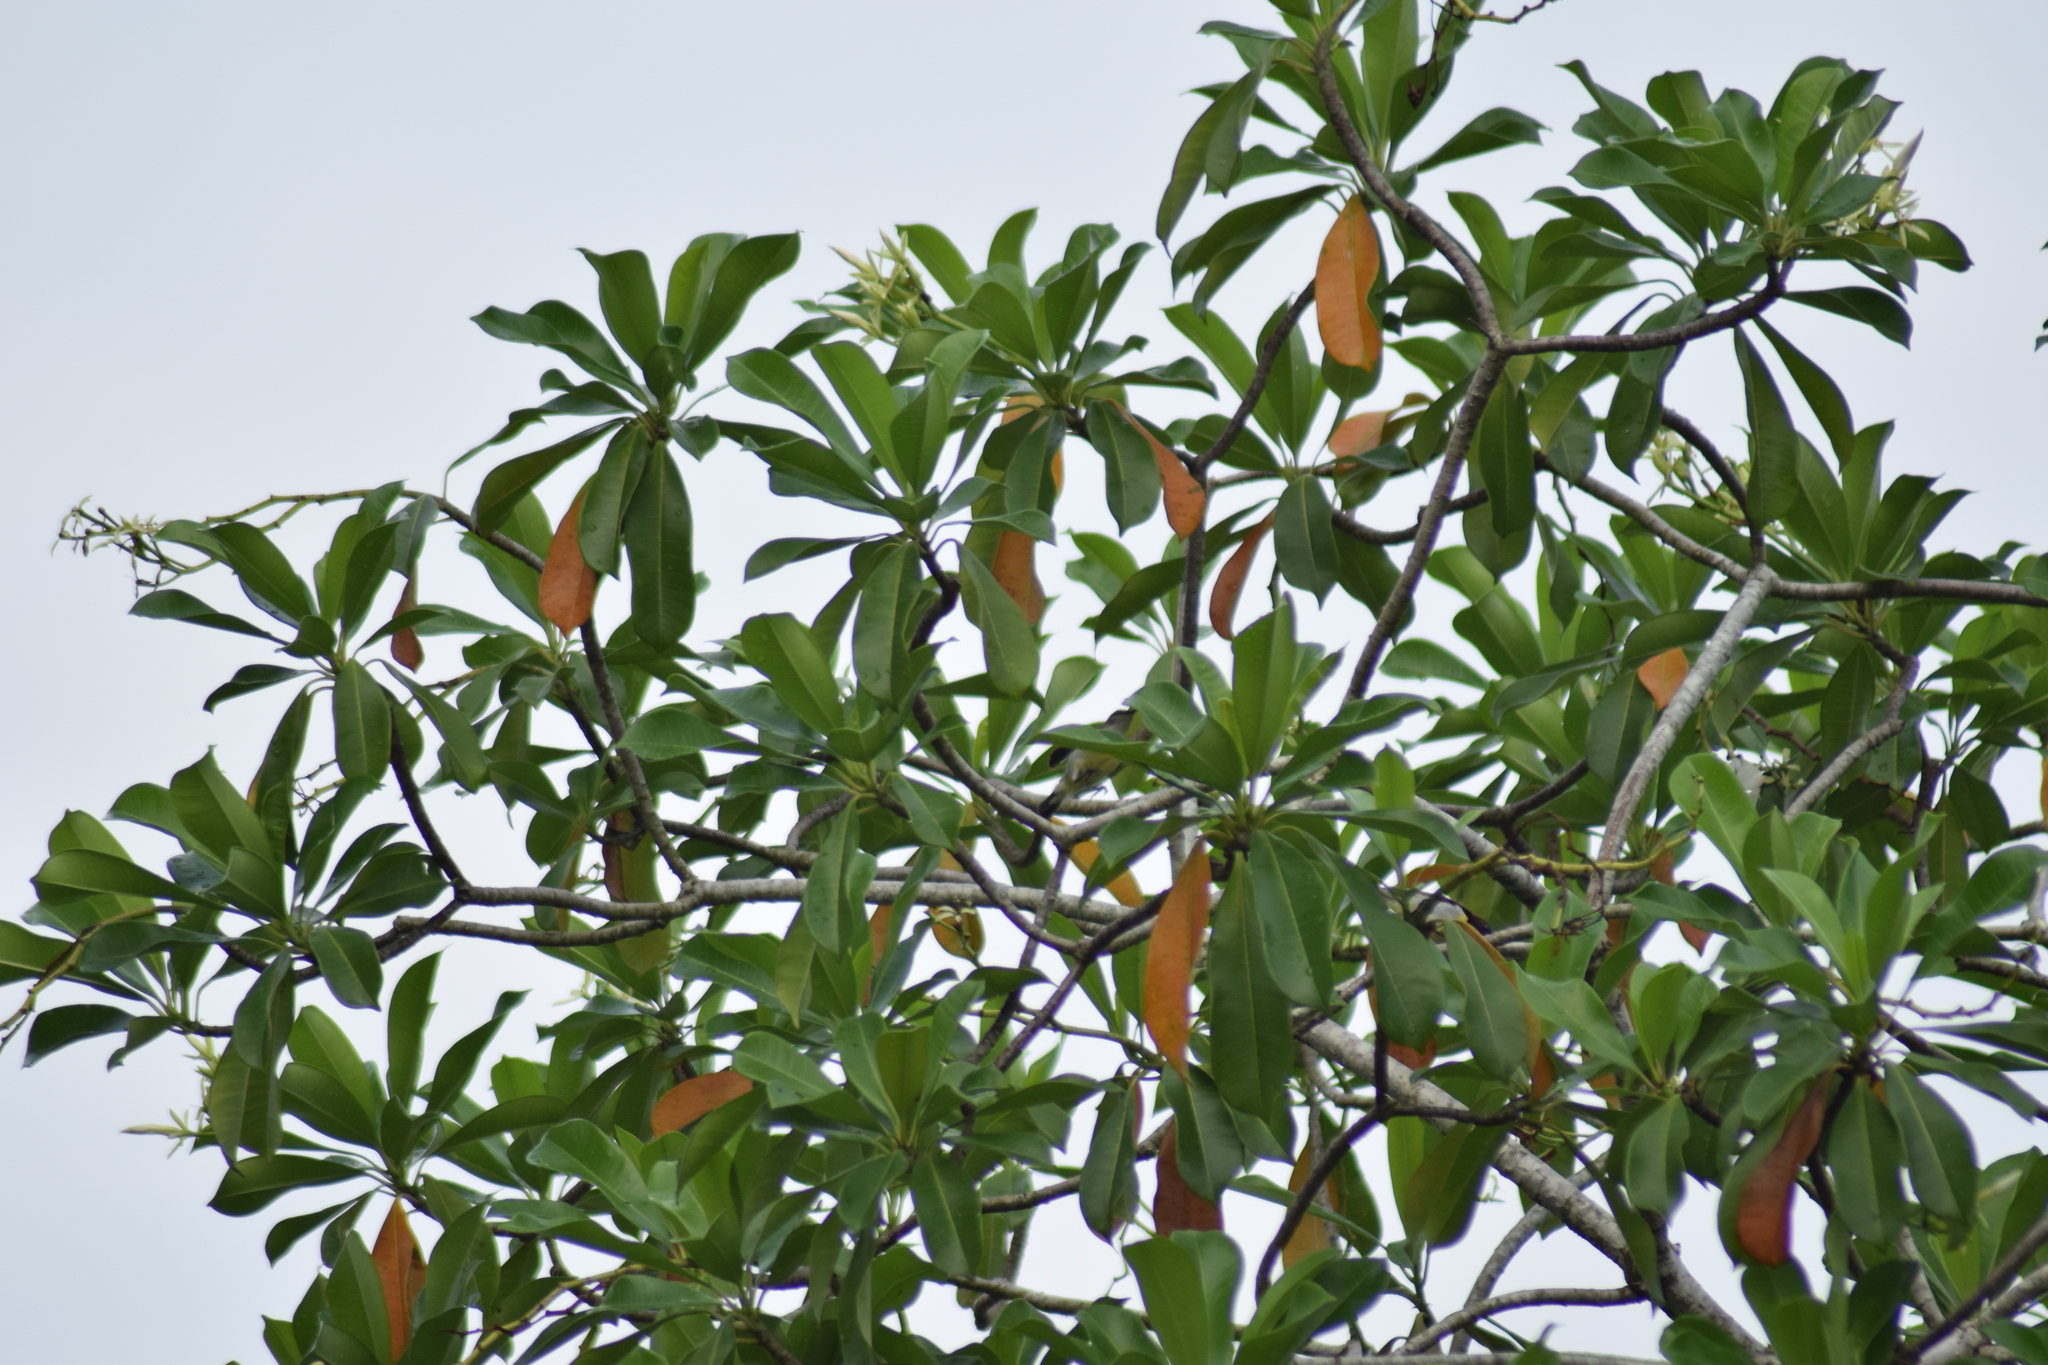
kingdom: Plantae
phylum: Tracheophyta
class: Magnoliopsida
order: Gentianales
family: Apocynaceae
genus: Cerbera
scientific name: Cerbera odollam
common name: Pong-pong
